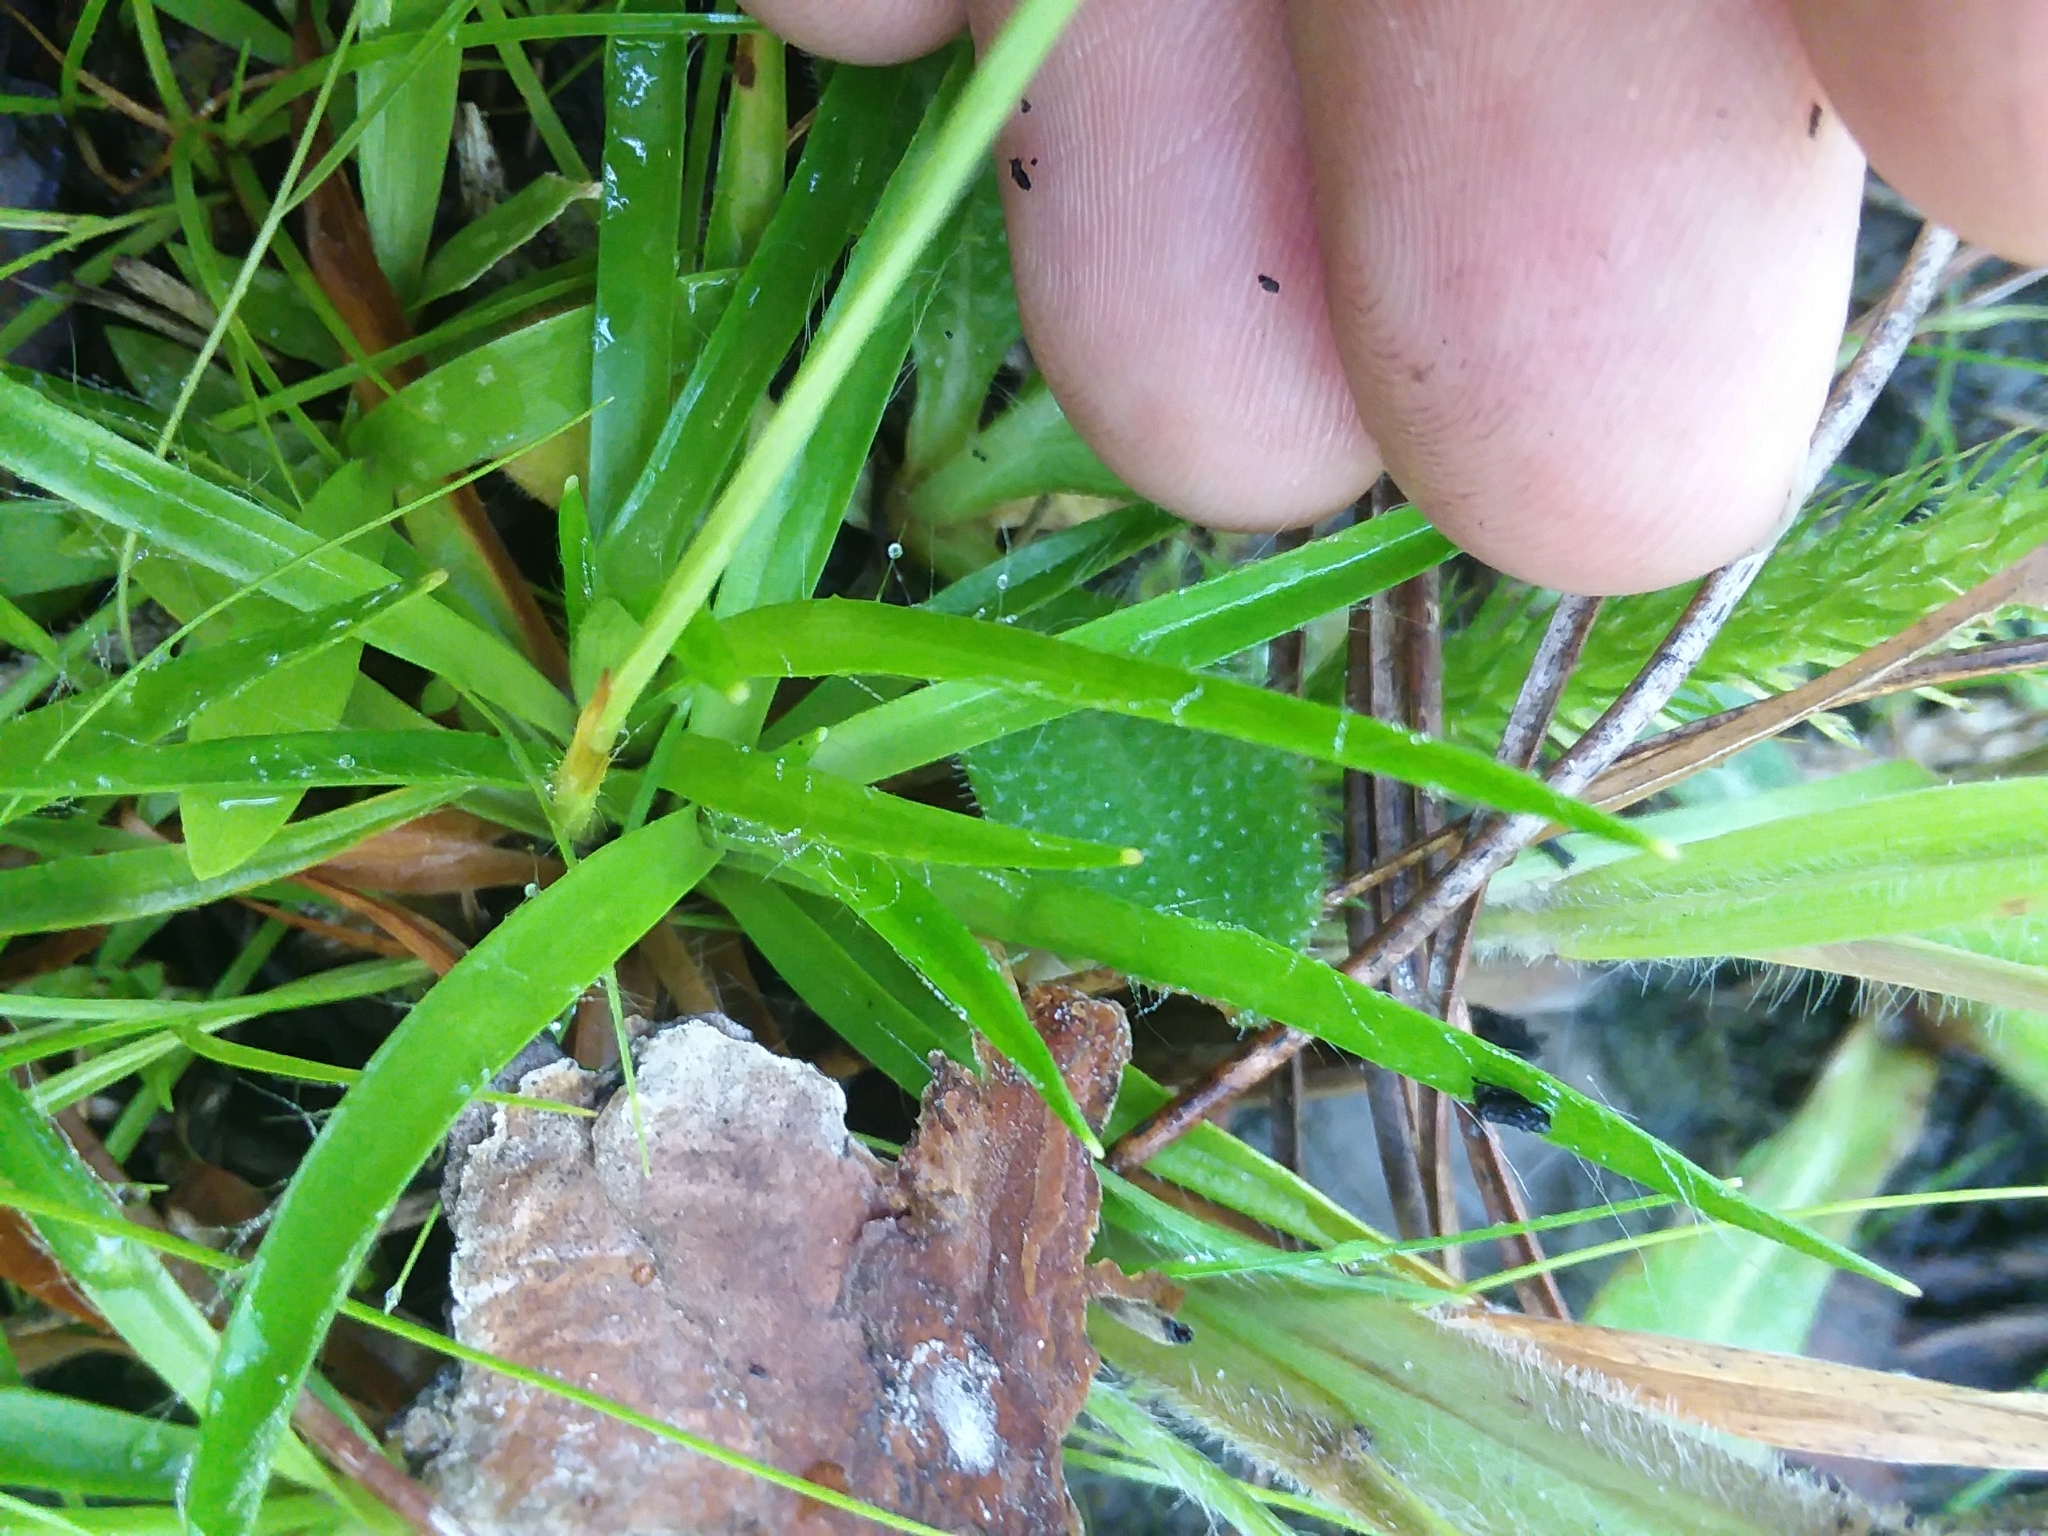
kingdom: Plantae
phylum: Tracheophyta
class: Liliopsida
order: Poales
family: Eriocaulaceae
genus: Paepalanthus
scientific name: Paepalanthus anceps
